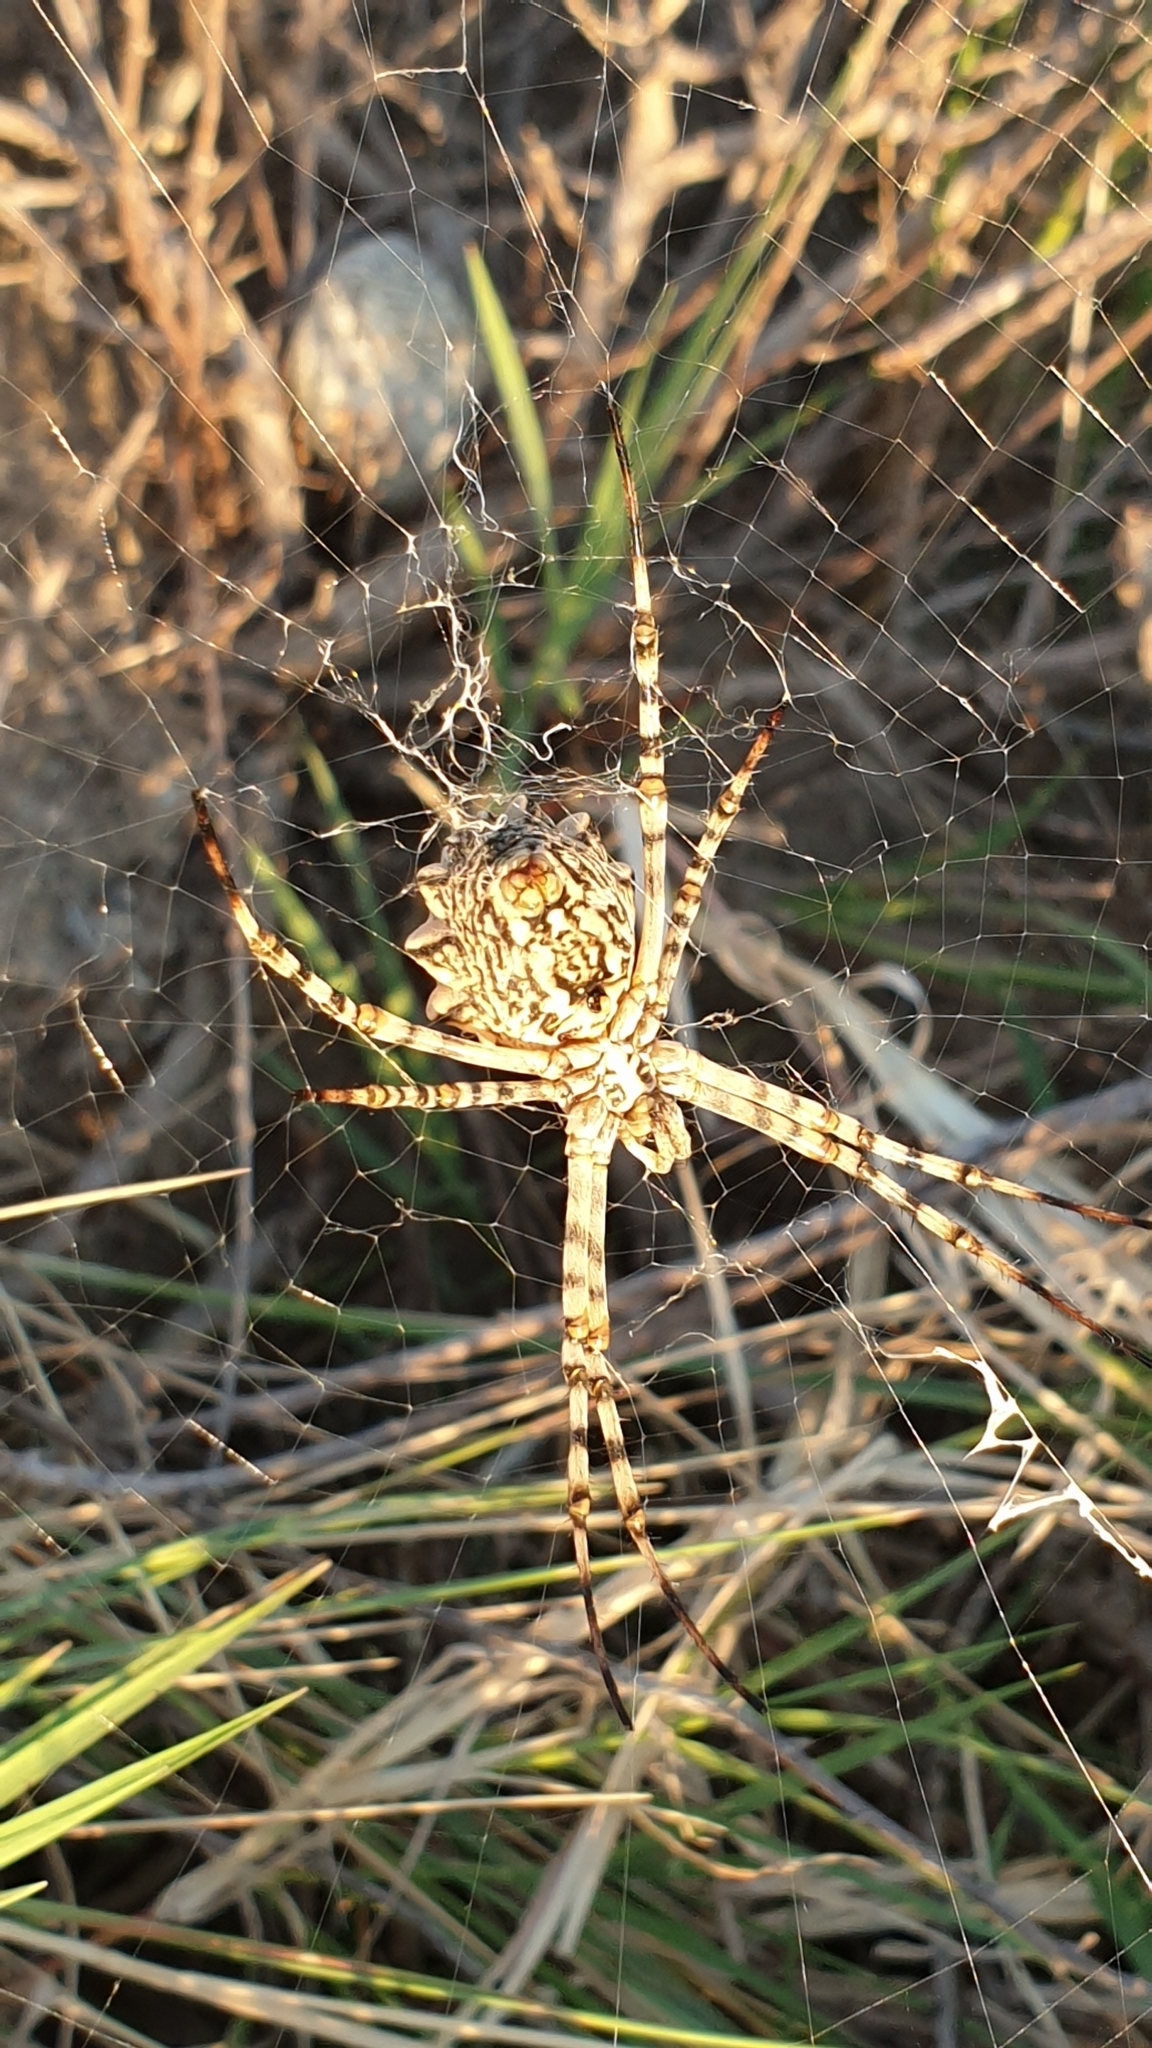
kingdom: Animalia
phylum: Arthropoda
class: Arachnida
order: Araneae
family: Araneidae
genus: Argiope
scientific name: Argiope lobata
